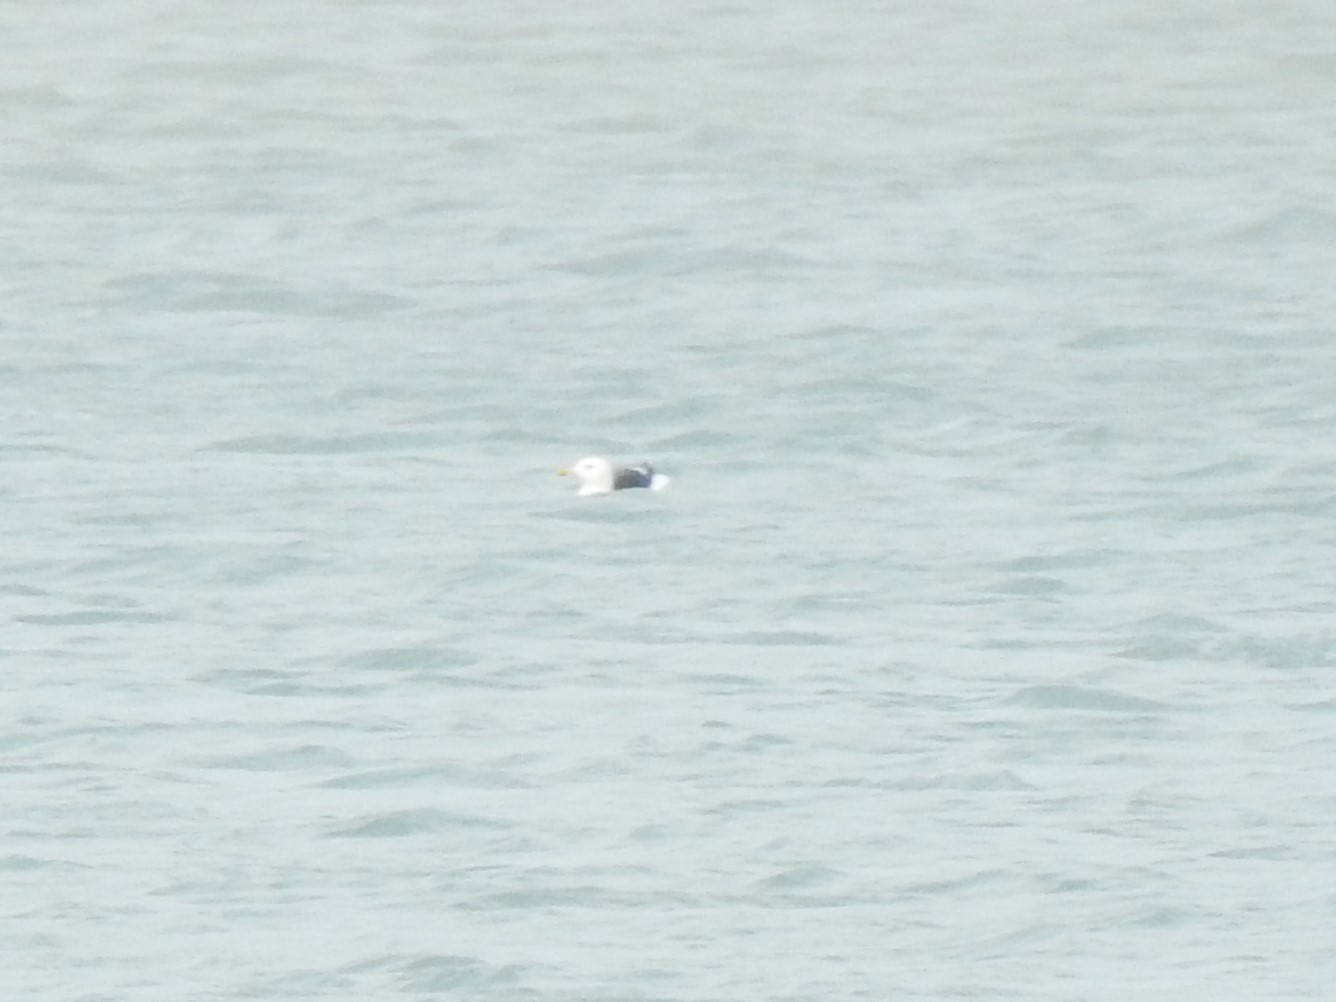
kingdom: Animalia
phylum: Chordata
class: Aves
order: Charadriiformes
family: Laridae
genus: Larus
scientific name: Larus marinus
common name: Great black-backed gull
